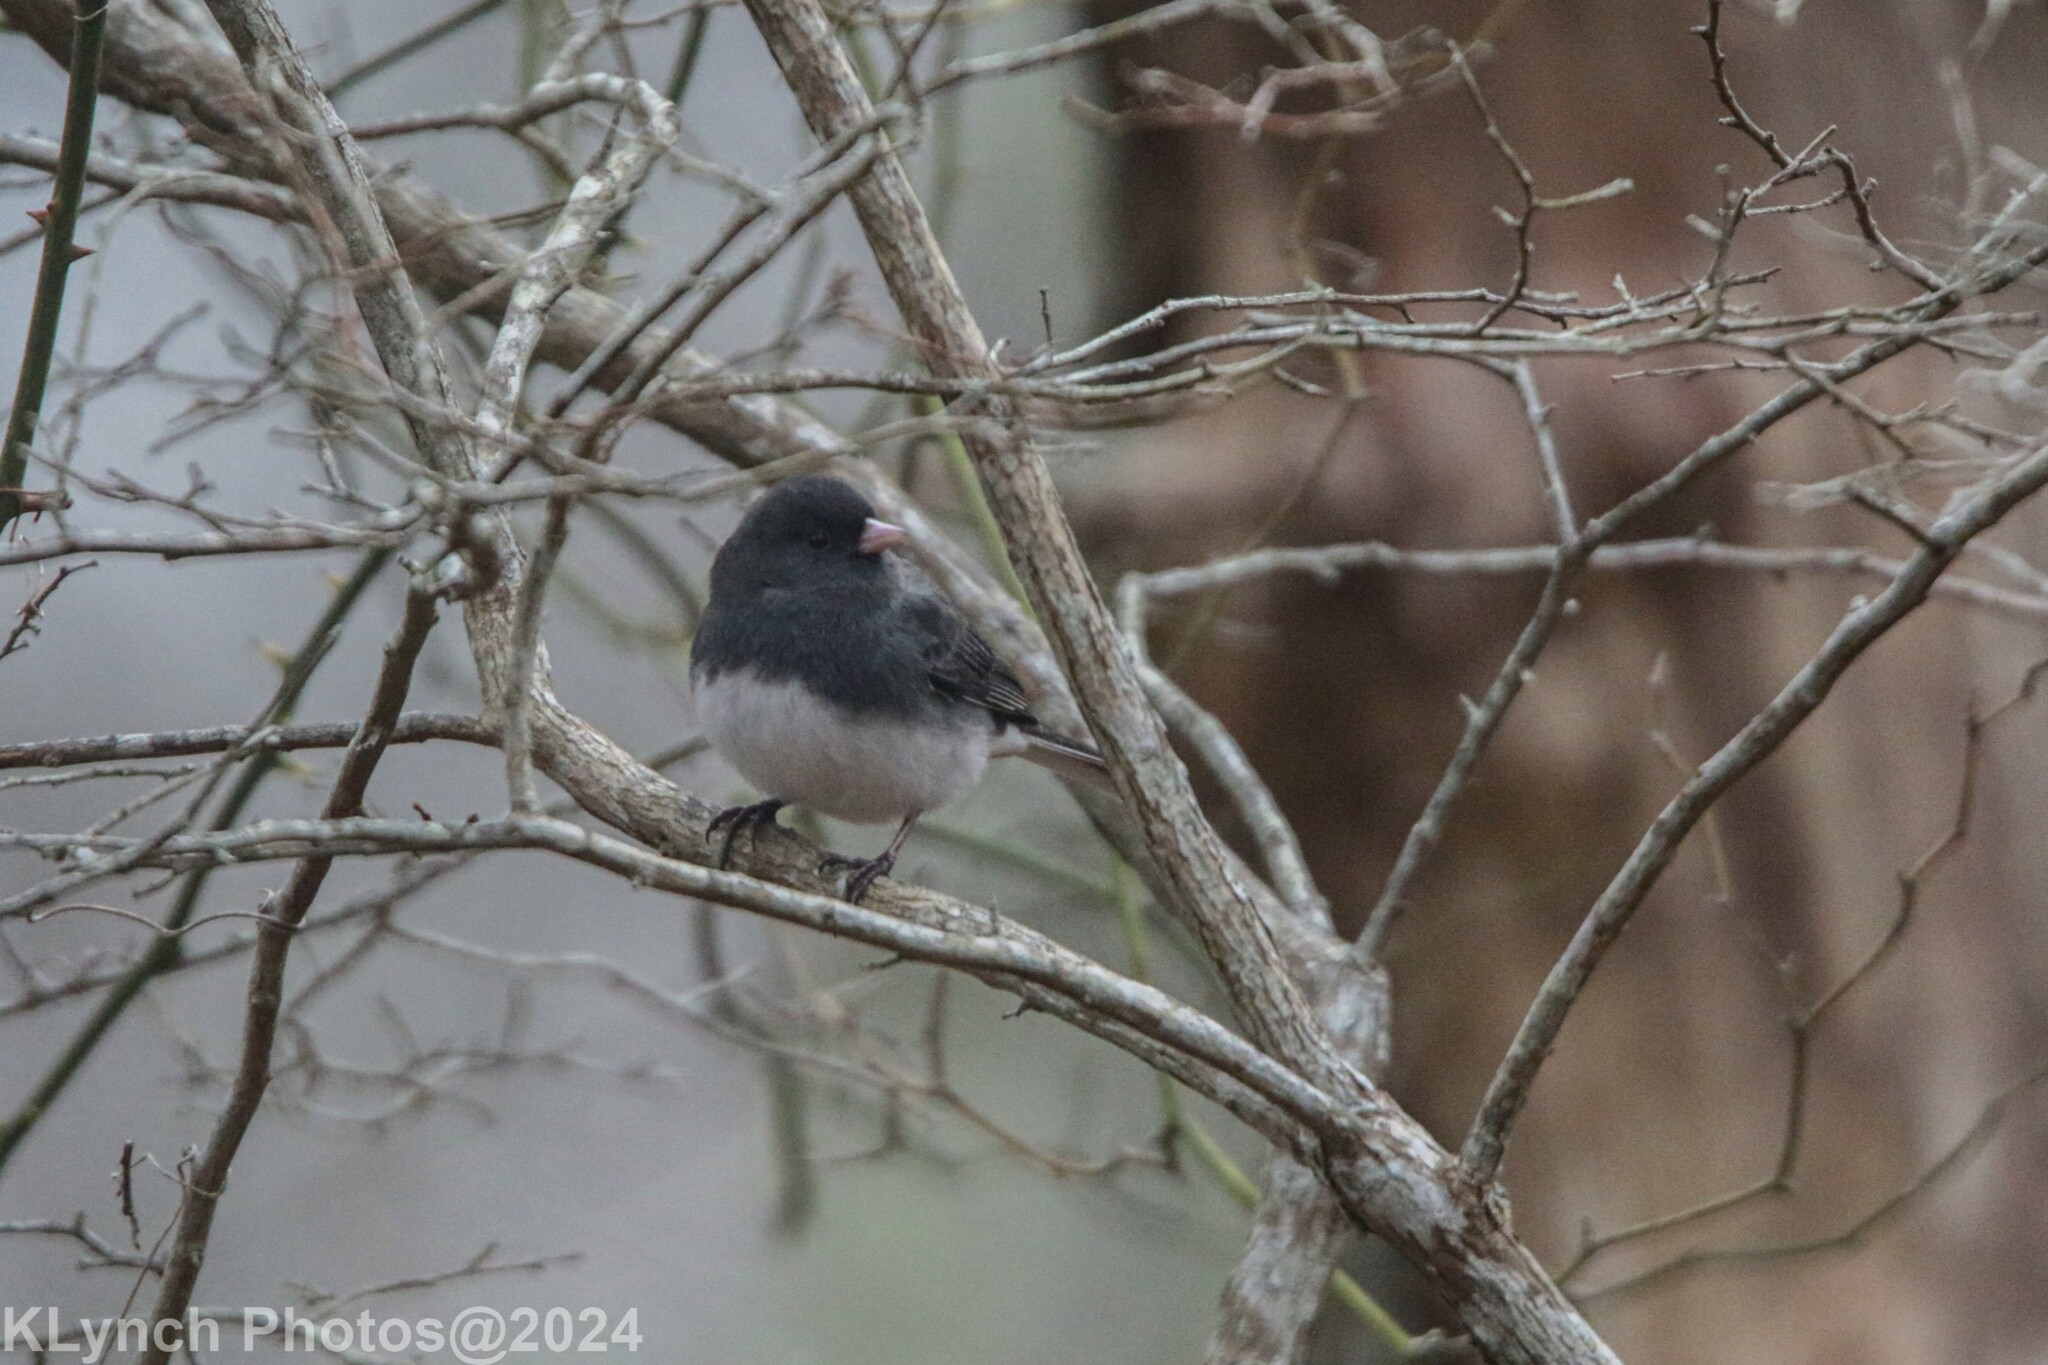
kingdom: Animalia
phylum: Chordata
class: Aves
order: Passeriformes
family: Passerellidae
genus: Junco
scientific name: Junco hyemalis
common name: Dark-eyed junco
